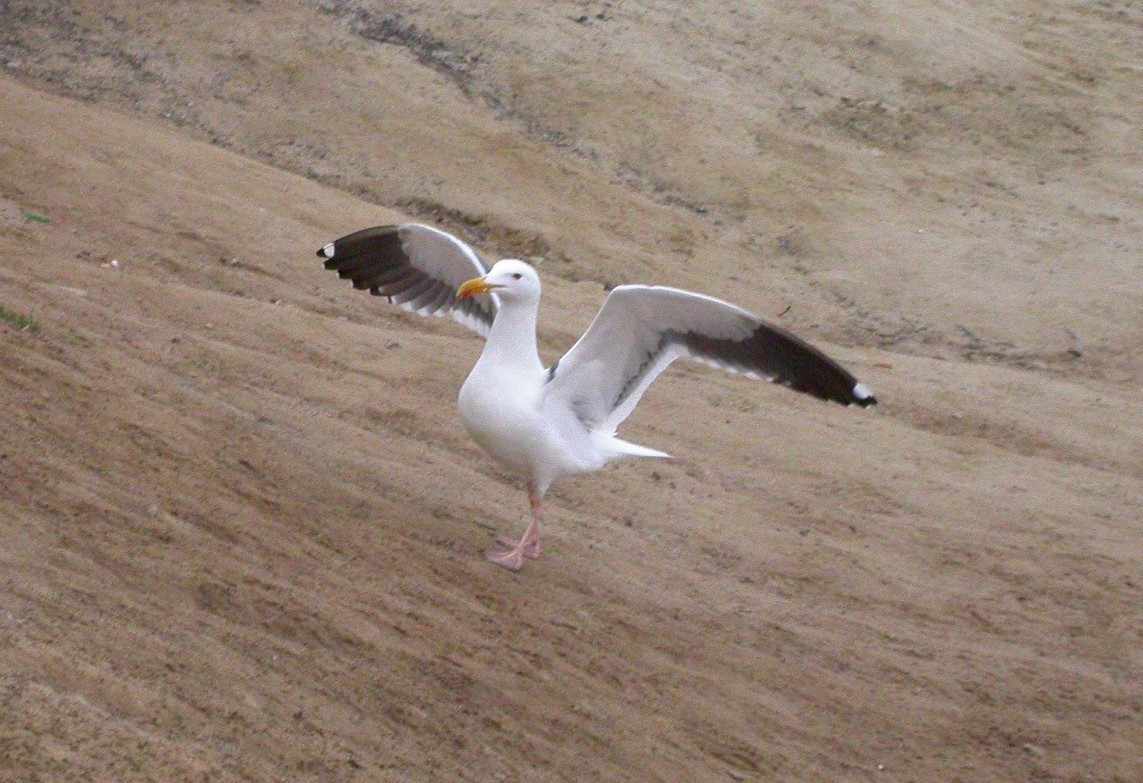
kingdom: Animalia
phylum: Chordata
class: Aves
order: Charadriiformes
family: Laridae
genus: Larus
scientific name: Larus occidentalis
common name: Western gull
